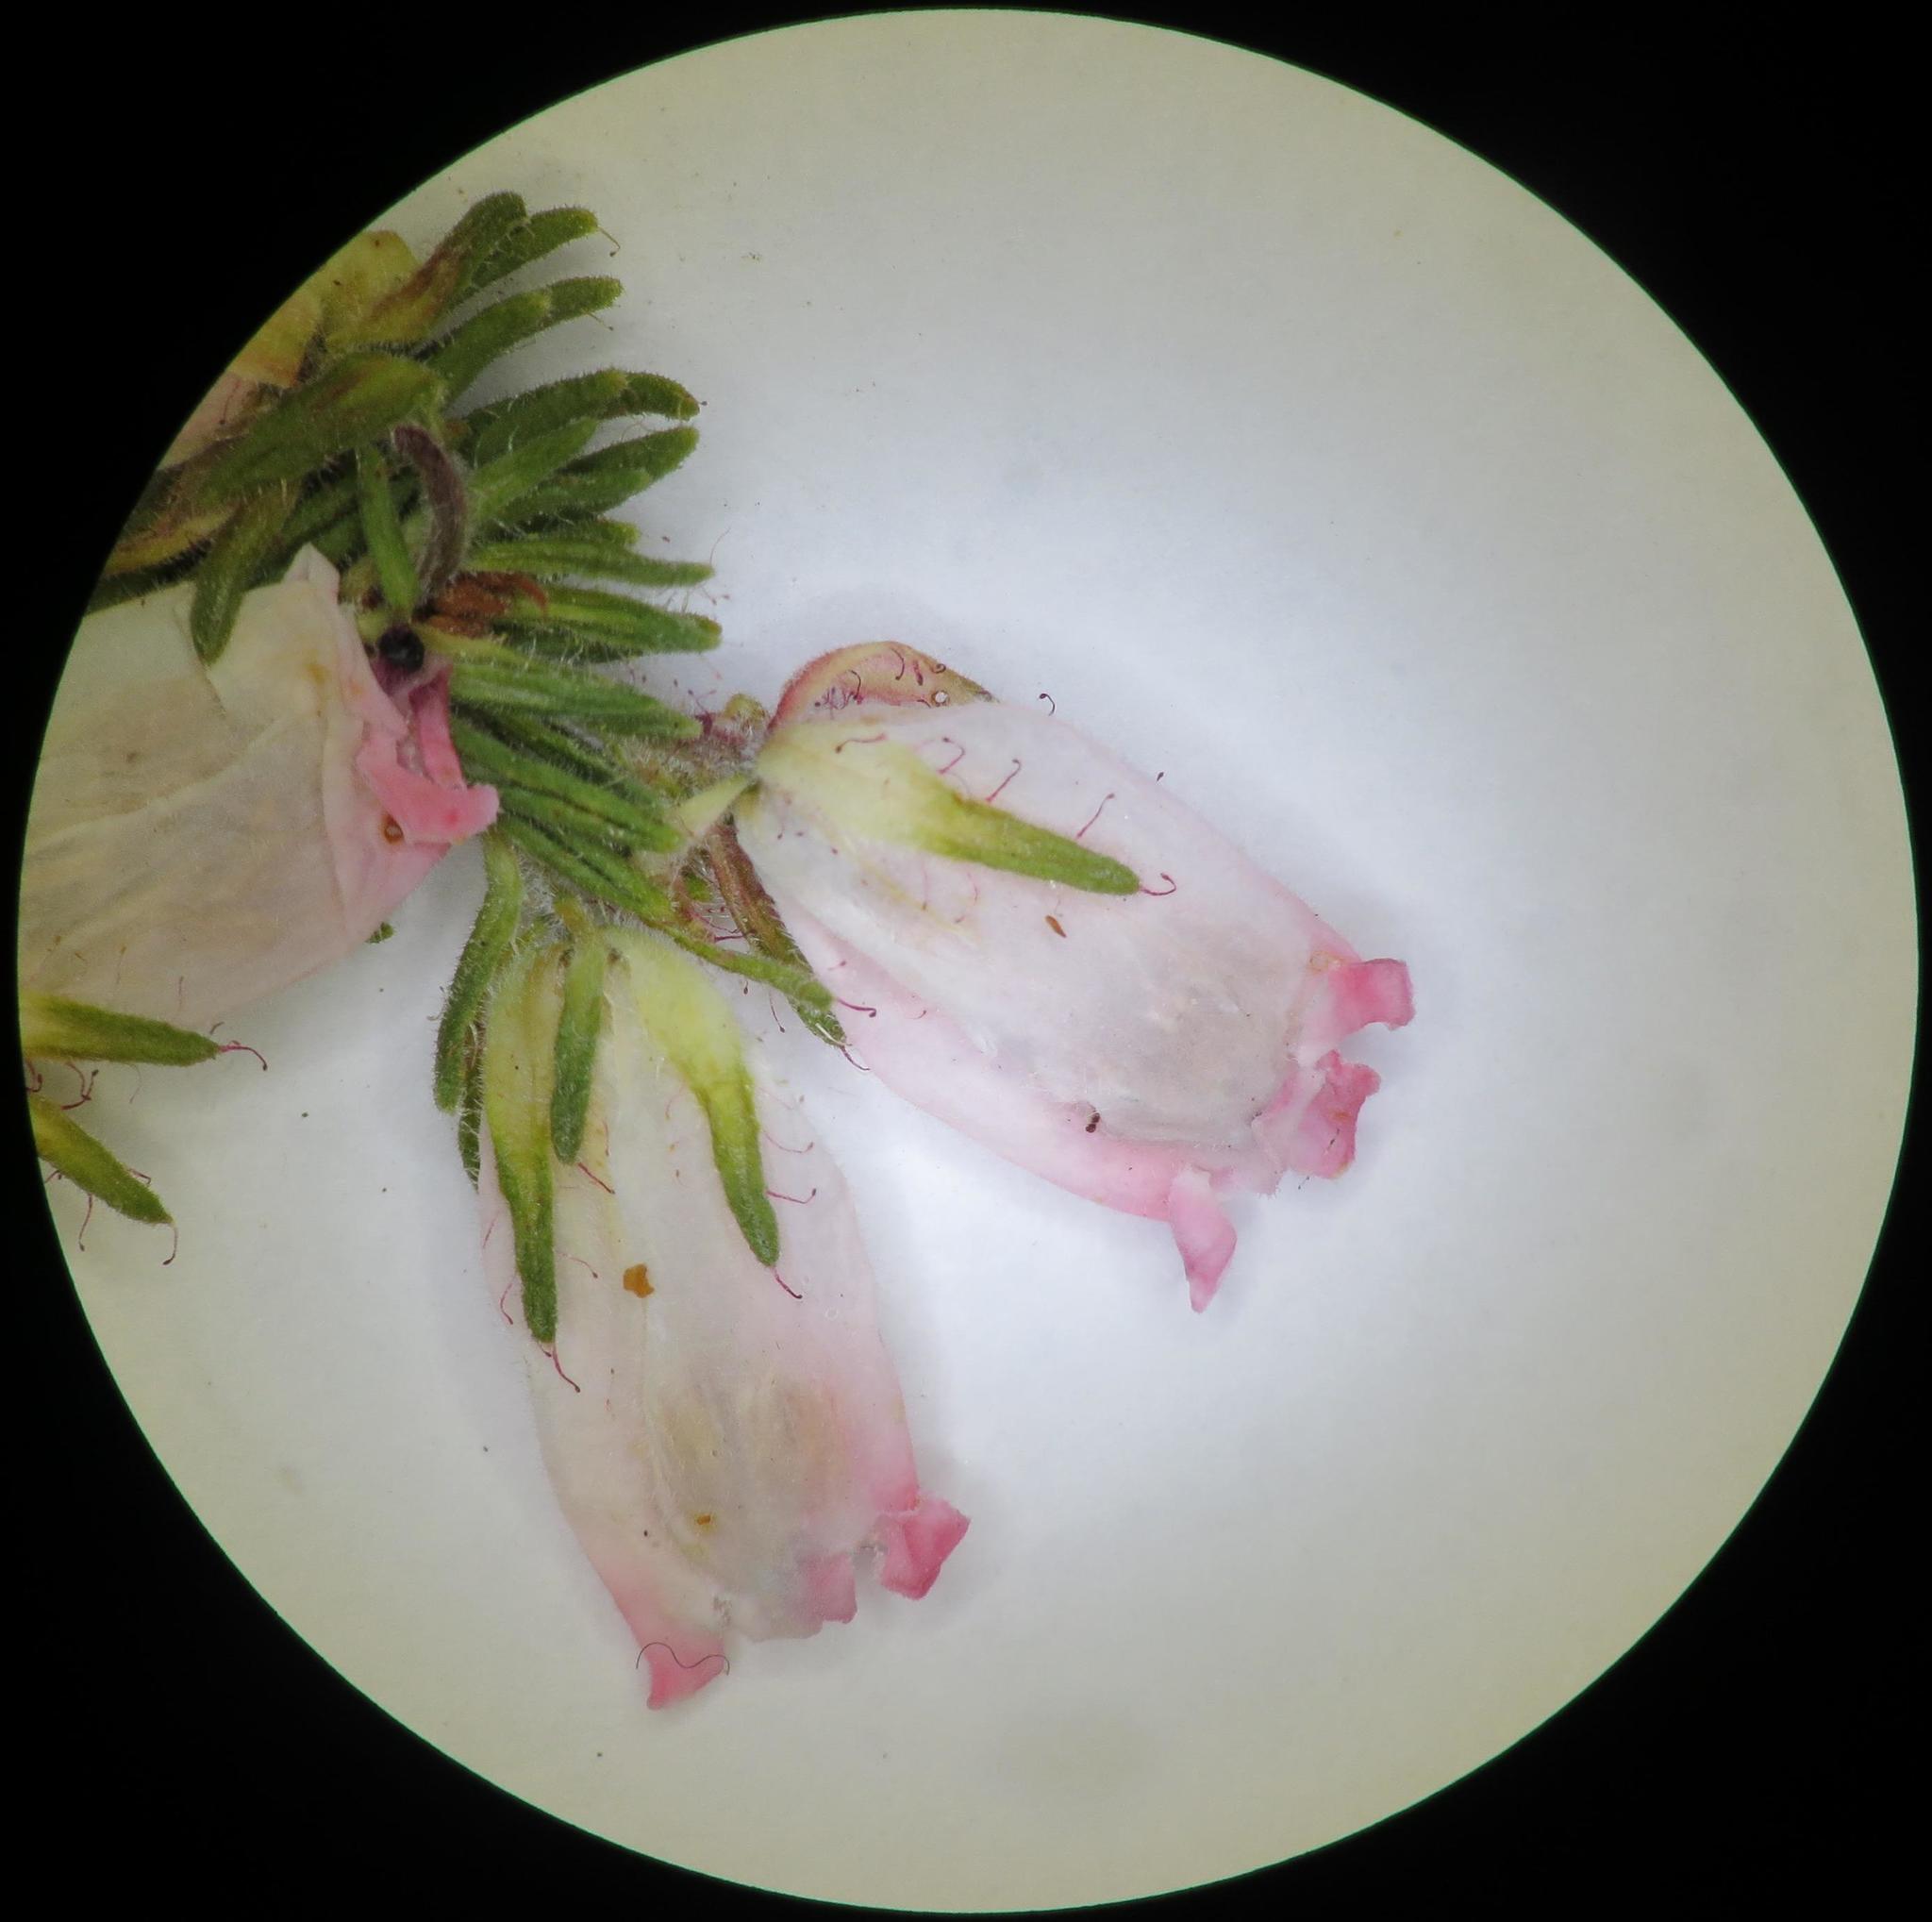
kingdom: Plantae
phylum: Tracheophyta
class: Magnoliopsida
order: Ericales
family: Ericaceae
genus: Erica
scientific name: Erica oatesii
